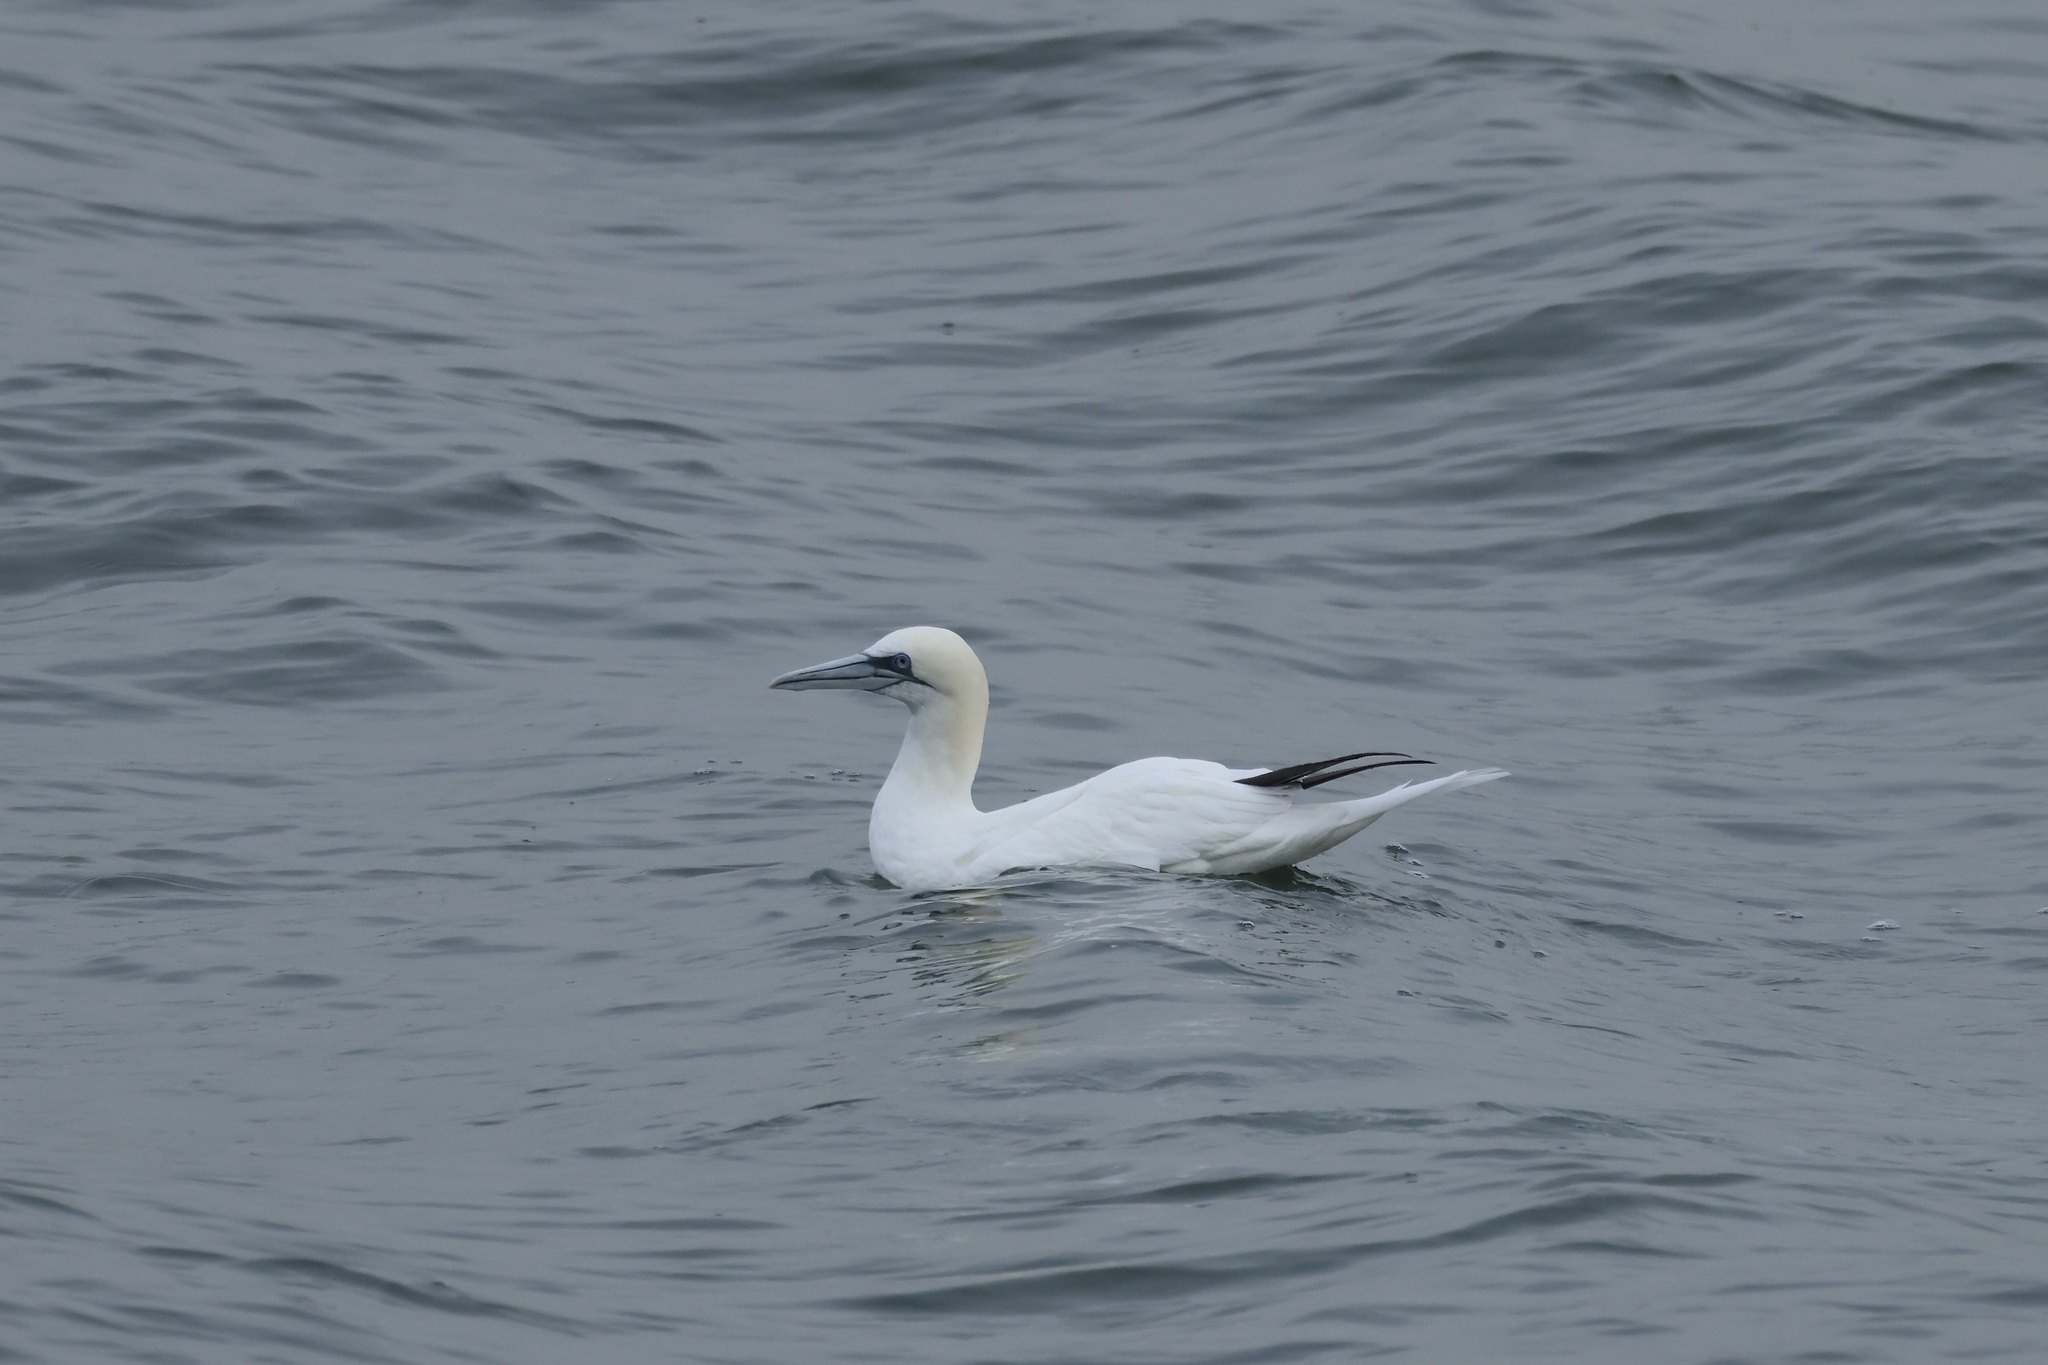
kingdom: Animalia
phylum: Chordata
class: Aves
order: Suliformes
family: Sulidae
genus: Morus
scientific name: Morus bassanus
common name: Northern gannet
